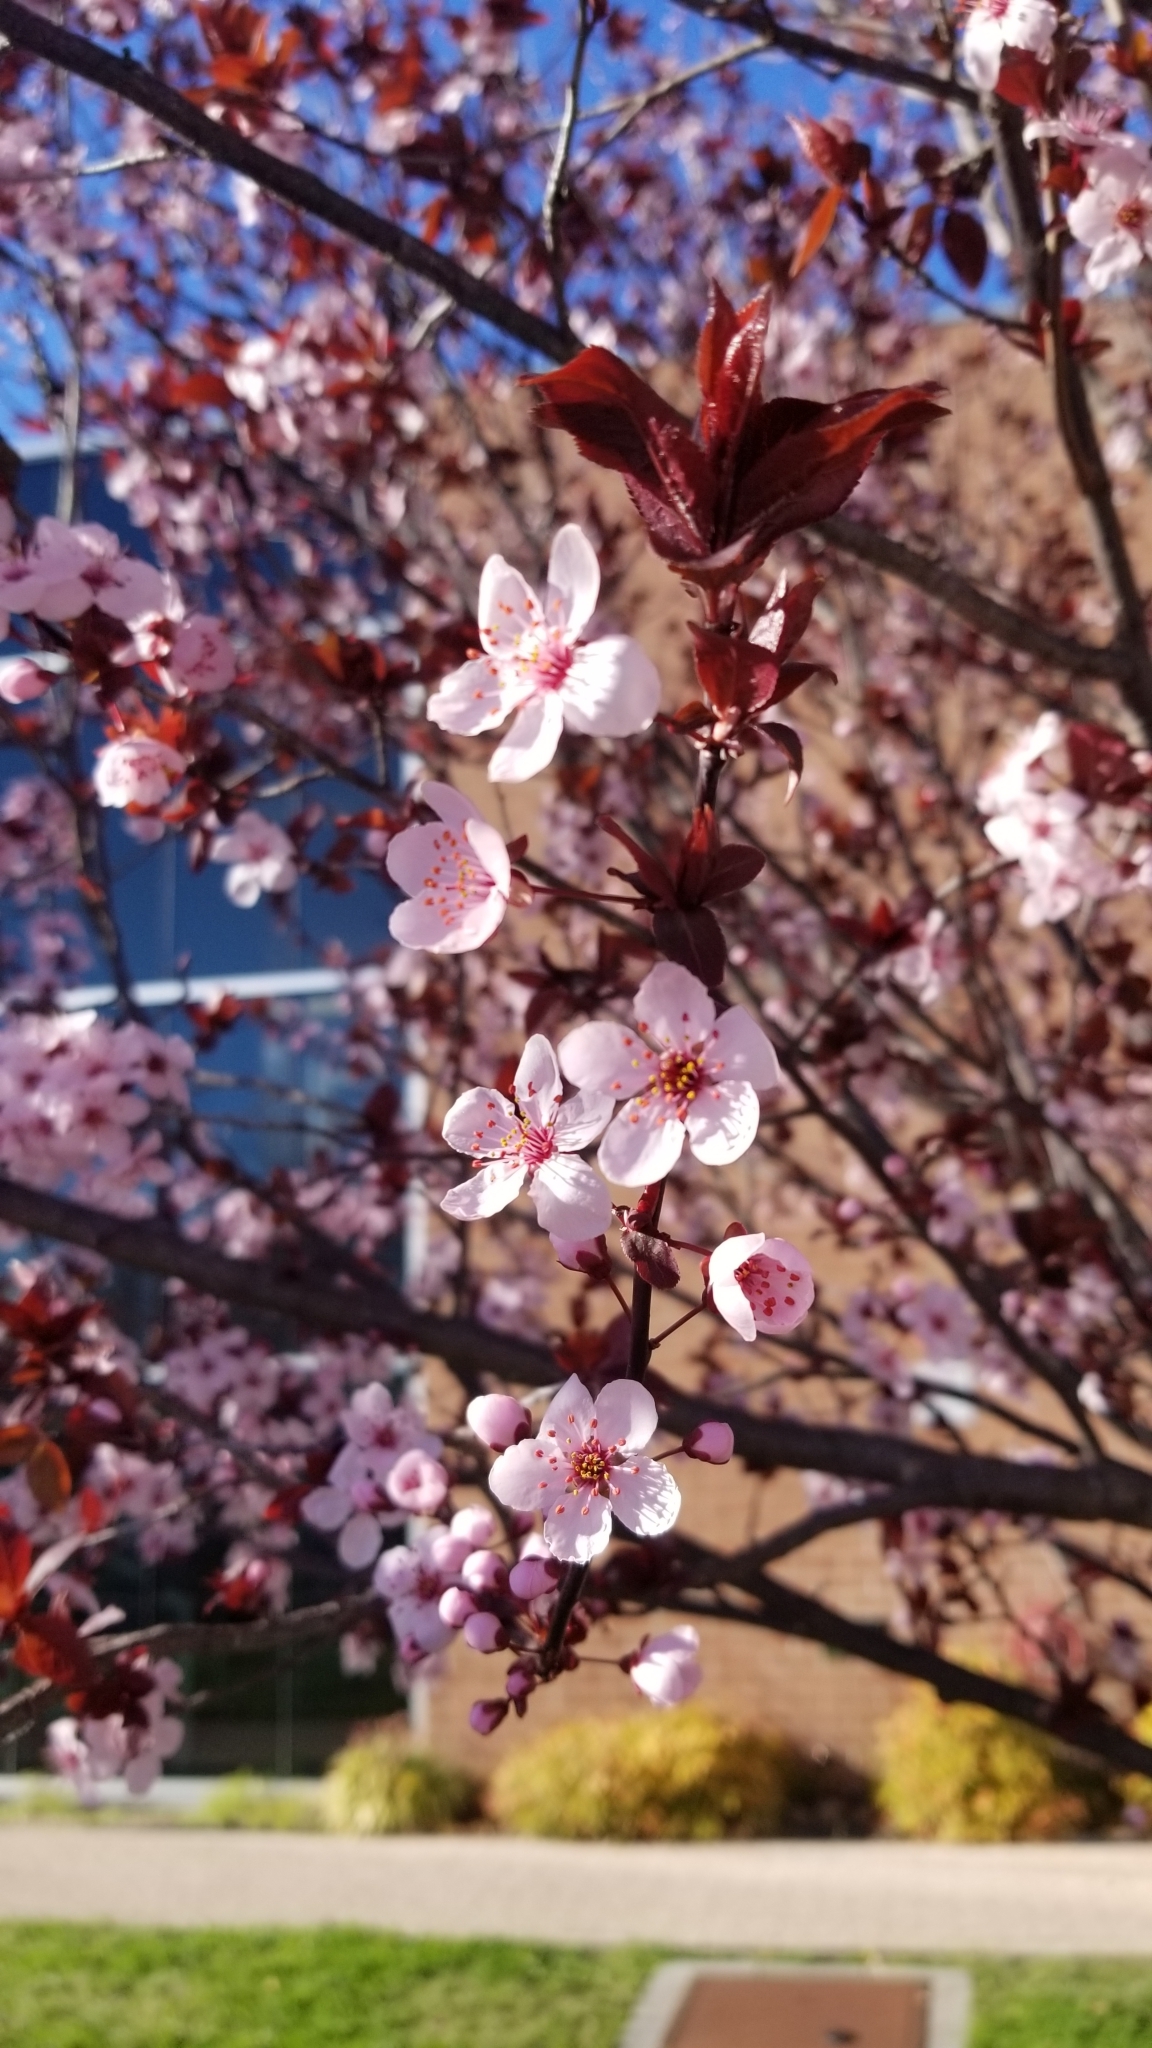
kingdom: Plantae
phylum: Tracheophyta
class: Magnoliopsida
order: Rosales
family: Rosaceae
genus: Prunus
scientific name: Prunus cerasifera
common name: Cherry plum
